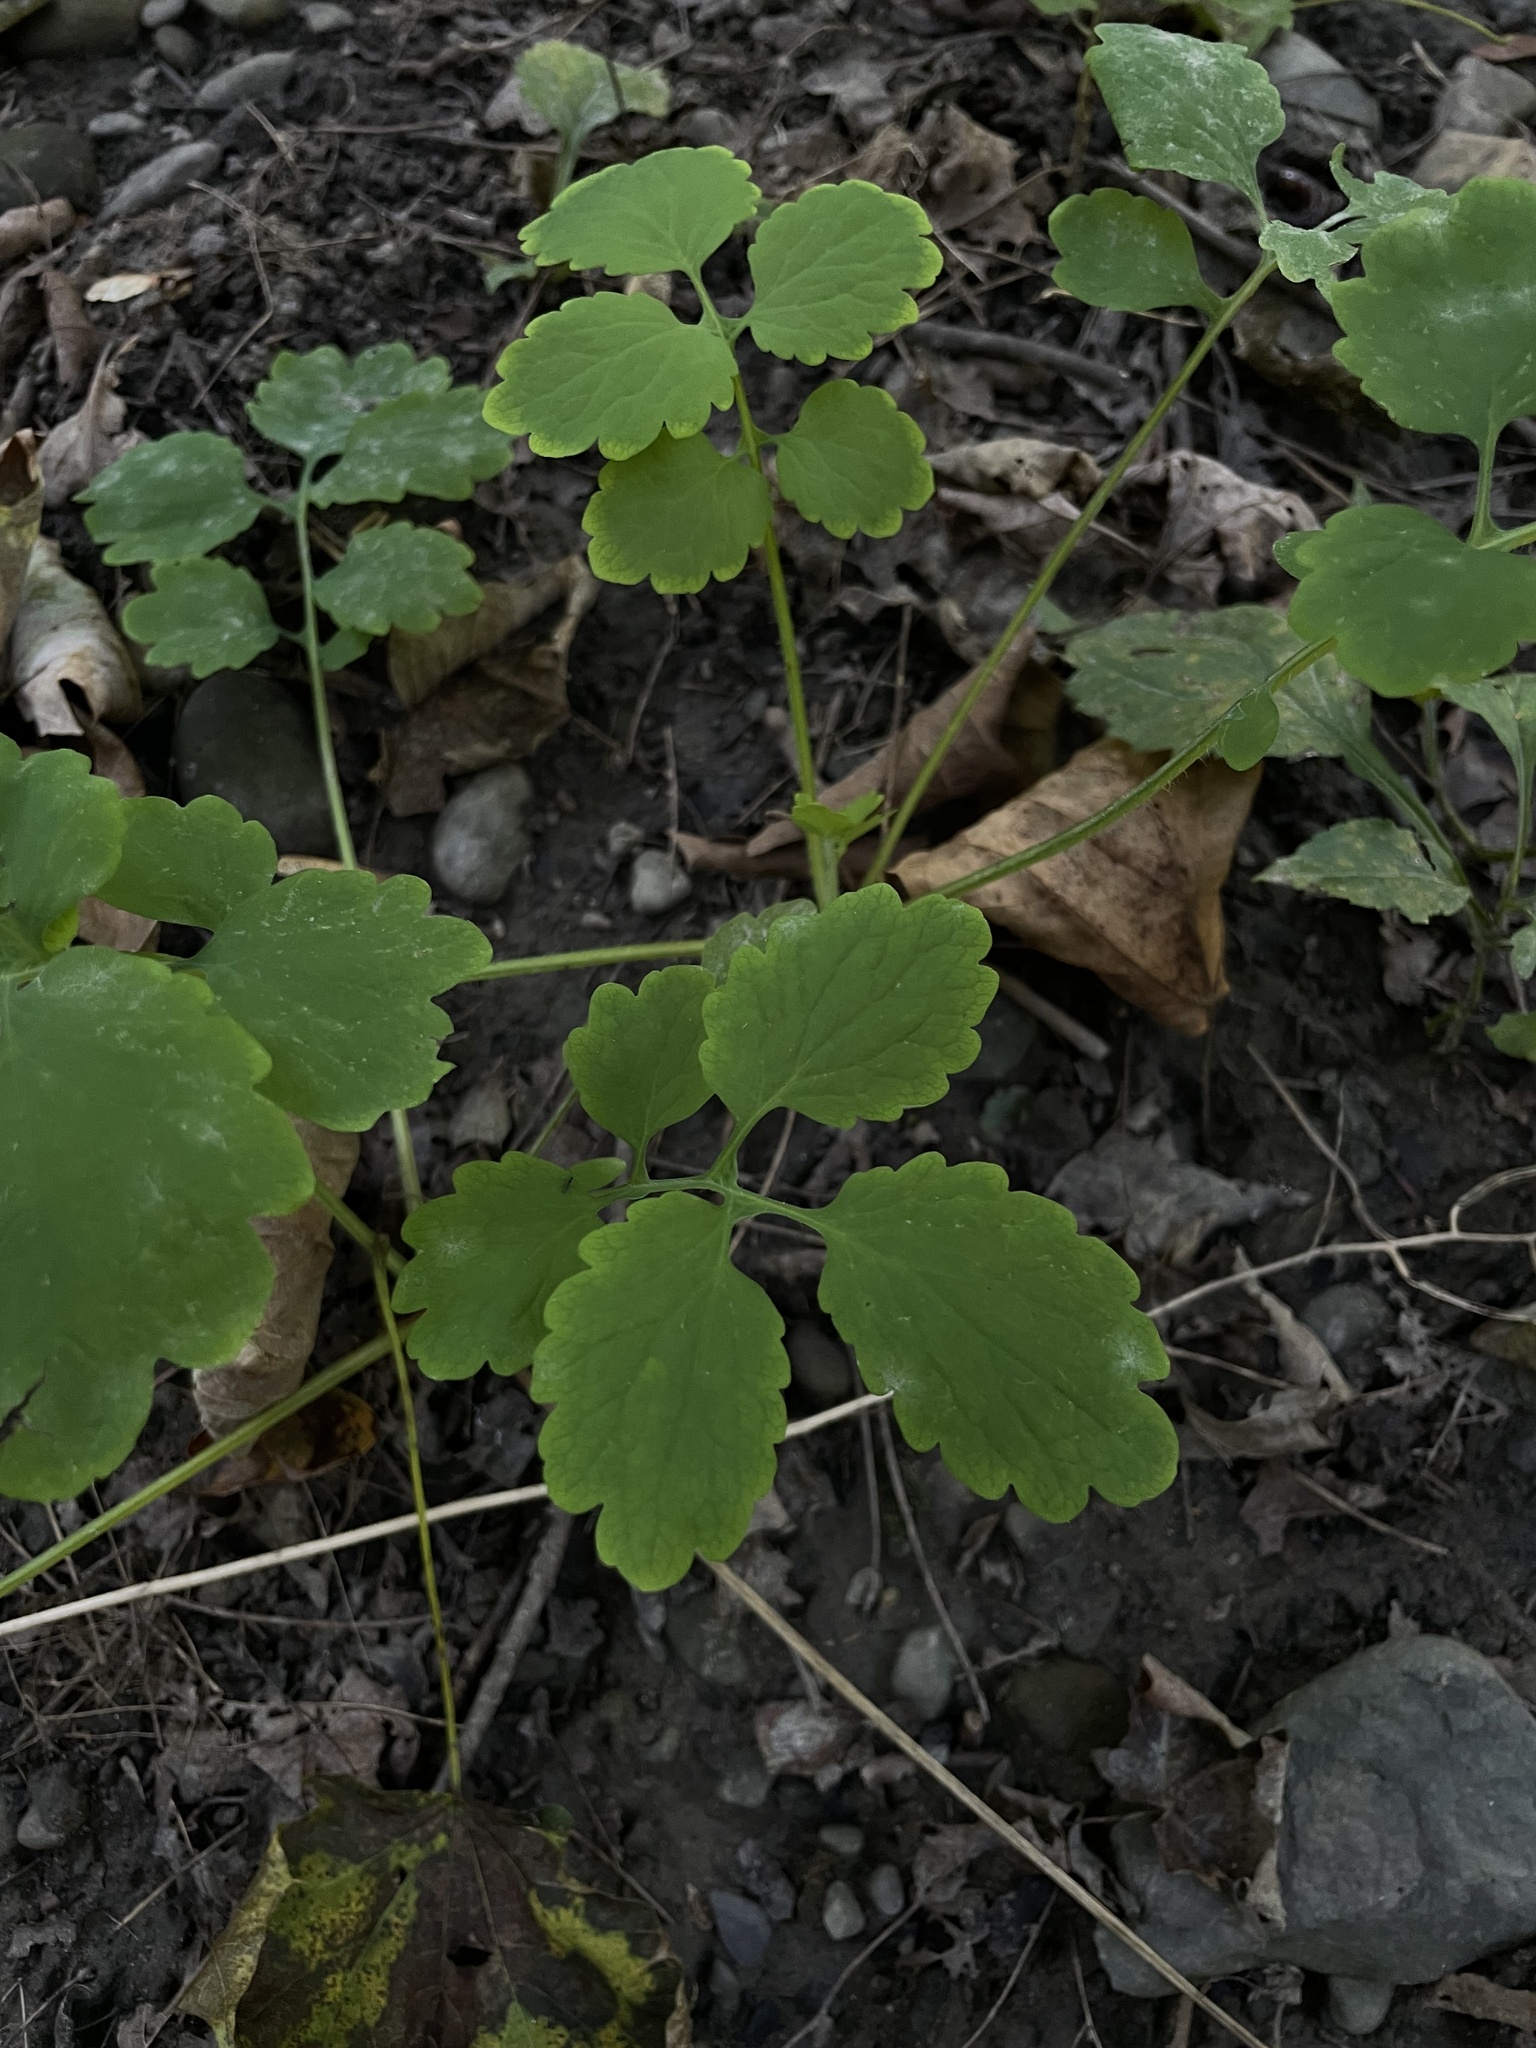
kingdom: Plantae
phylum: Tracheophyta
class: Magnoliopsida
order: Ranunculales
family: Papaveraceae
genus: Chelidonium
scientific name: Chelidonium majus
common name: Greater celandine
